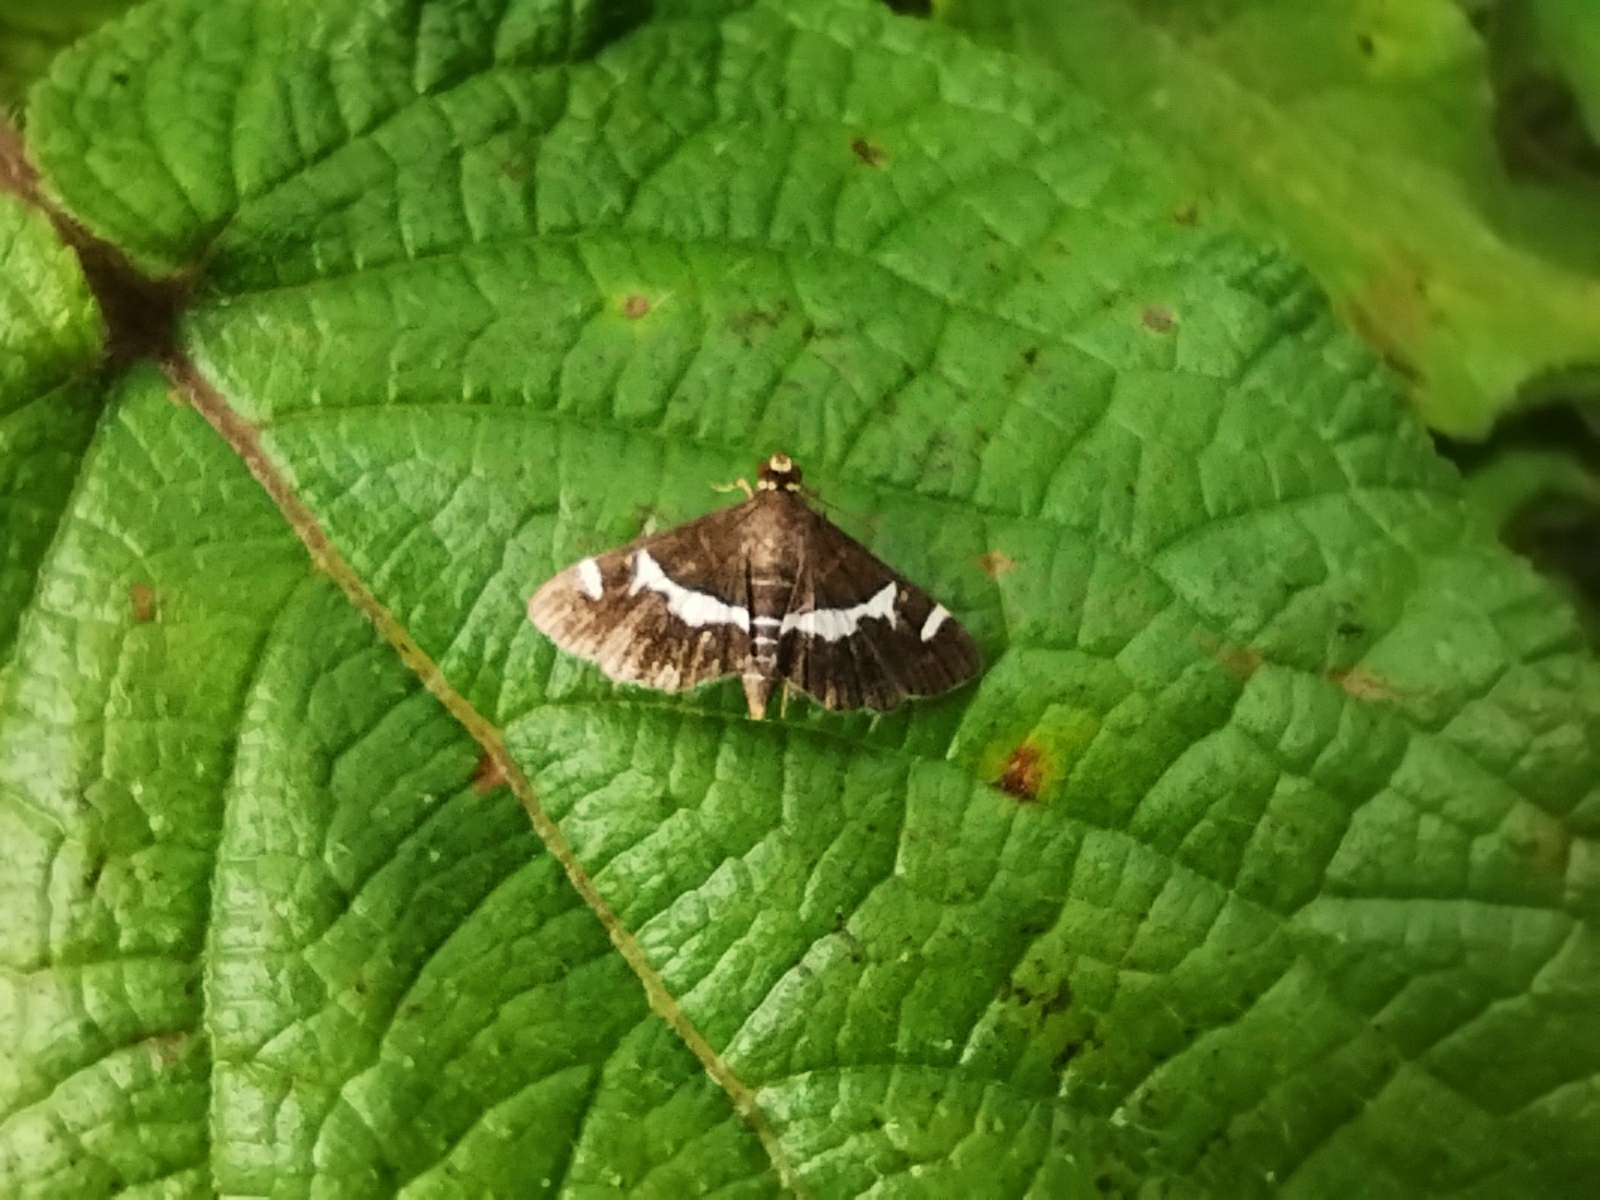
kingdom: Animalia
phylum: Arthropoda
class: Insecta
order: Lepidoptera
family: Crambidae
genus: Spoladea
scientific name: Spoladea recurvalis
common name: Beet webworm moth
